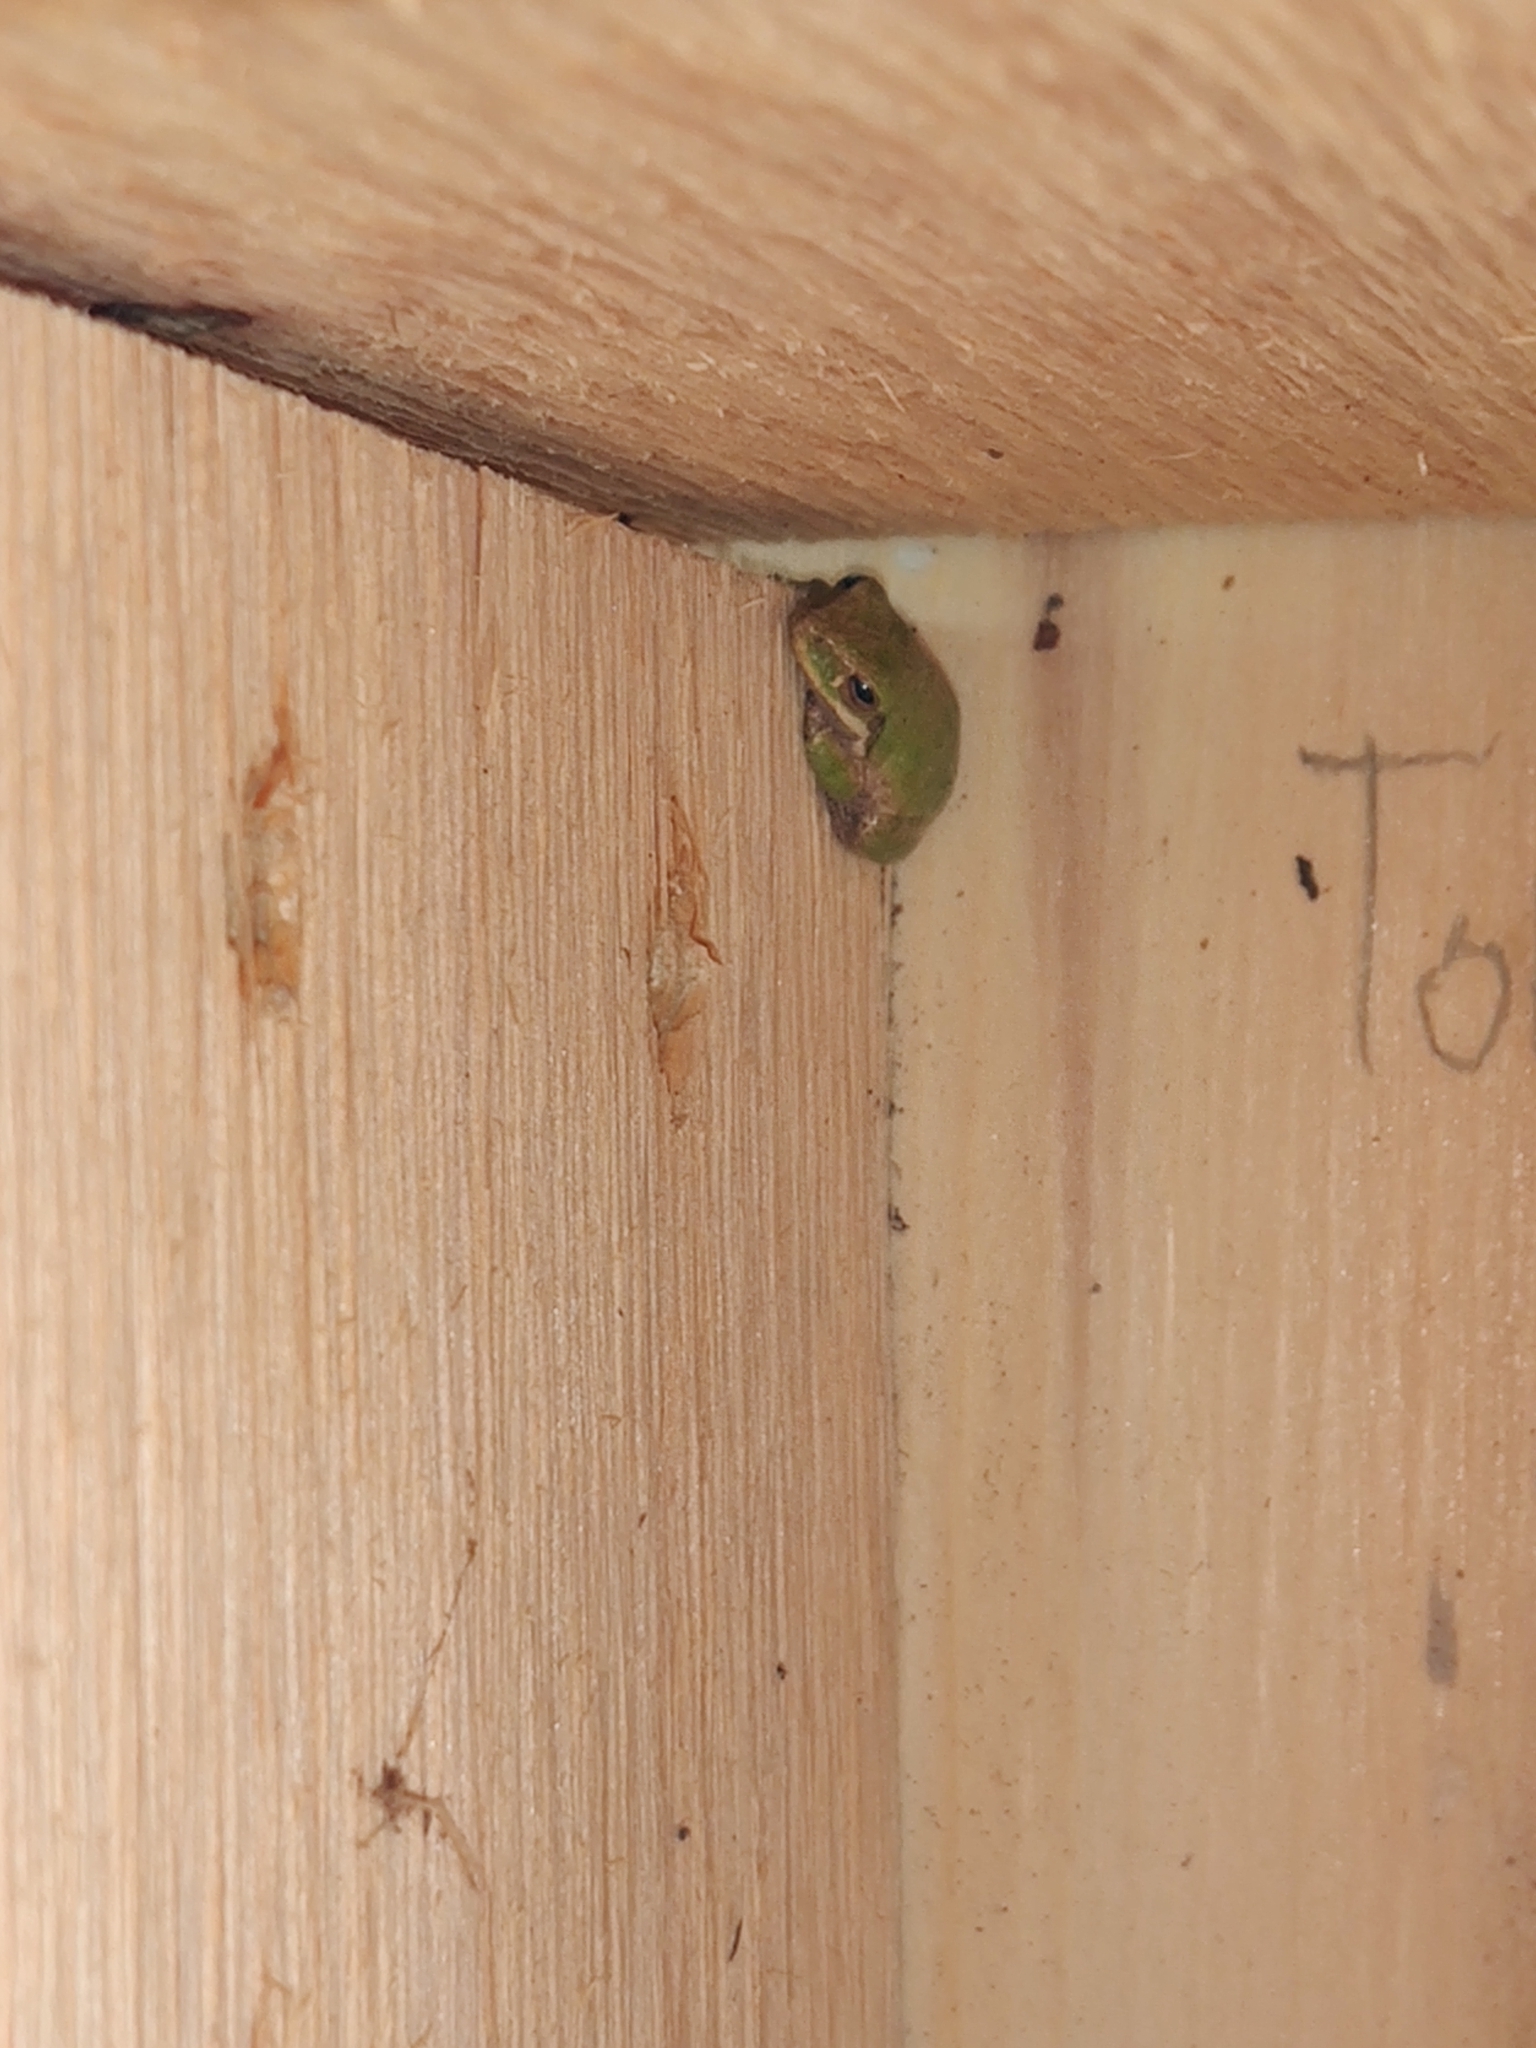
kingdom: Animalia
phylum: Chordata
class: Amphibia
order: Anura
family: Hylidae
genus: Dryophytes
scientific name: Dryophytes squirellus
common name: Squirrel treefrog
